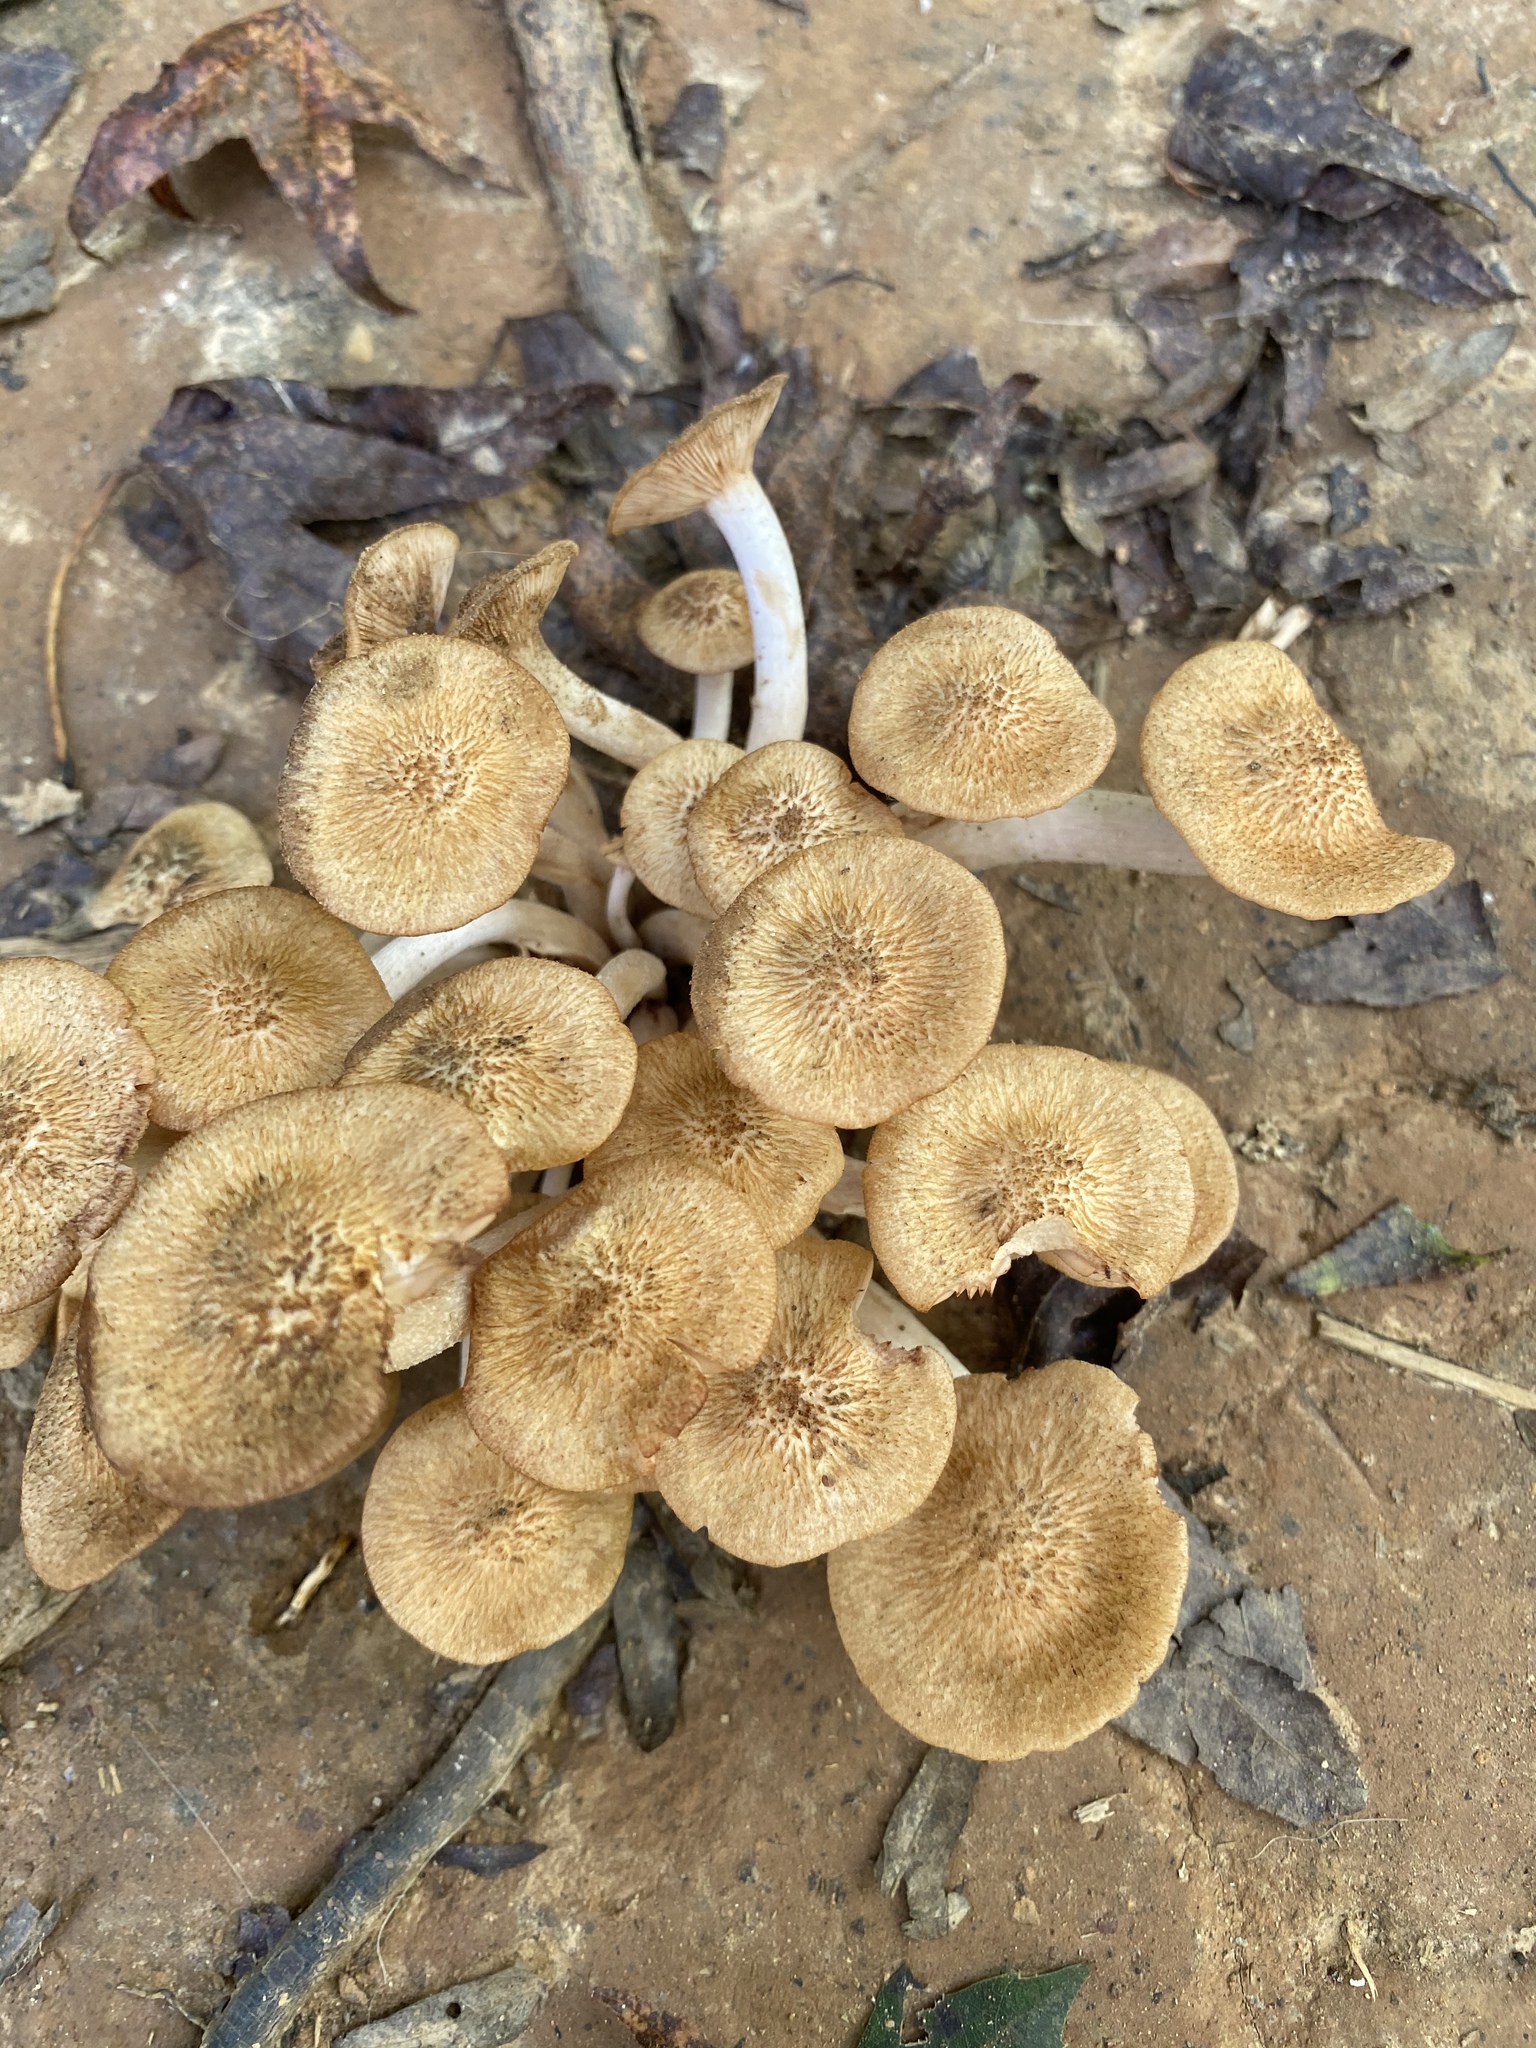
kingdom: Fungi
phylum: Basidiomycota
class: Agaricomycetes
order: Agaricales
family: Physalacriaceae
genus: Desarmillaria
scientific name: Desarmillaria caespitosa
